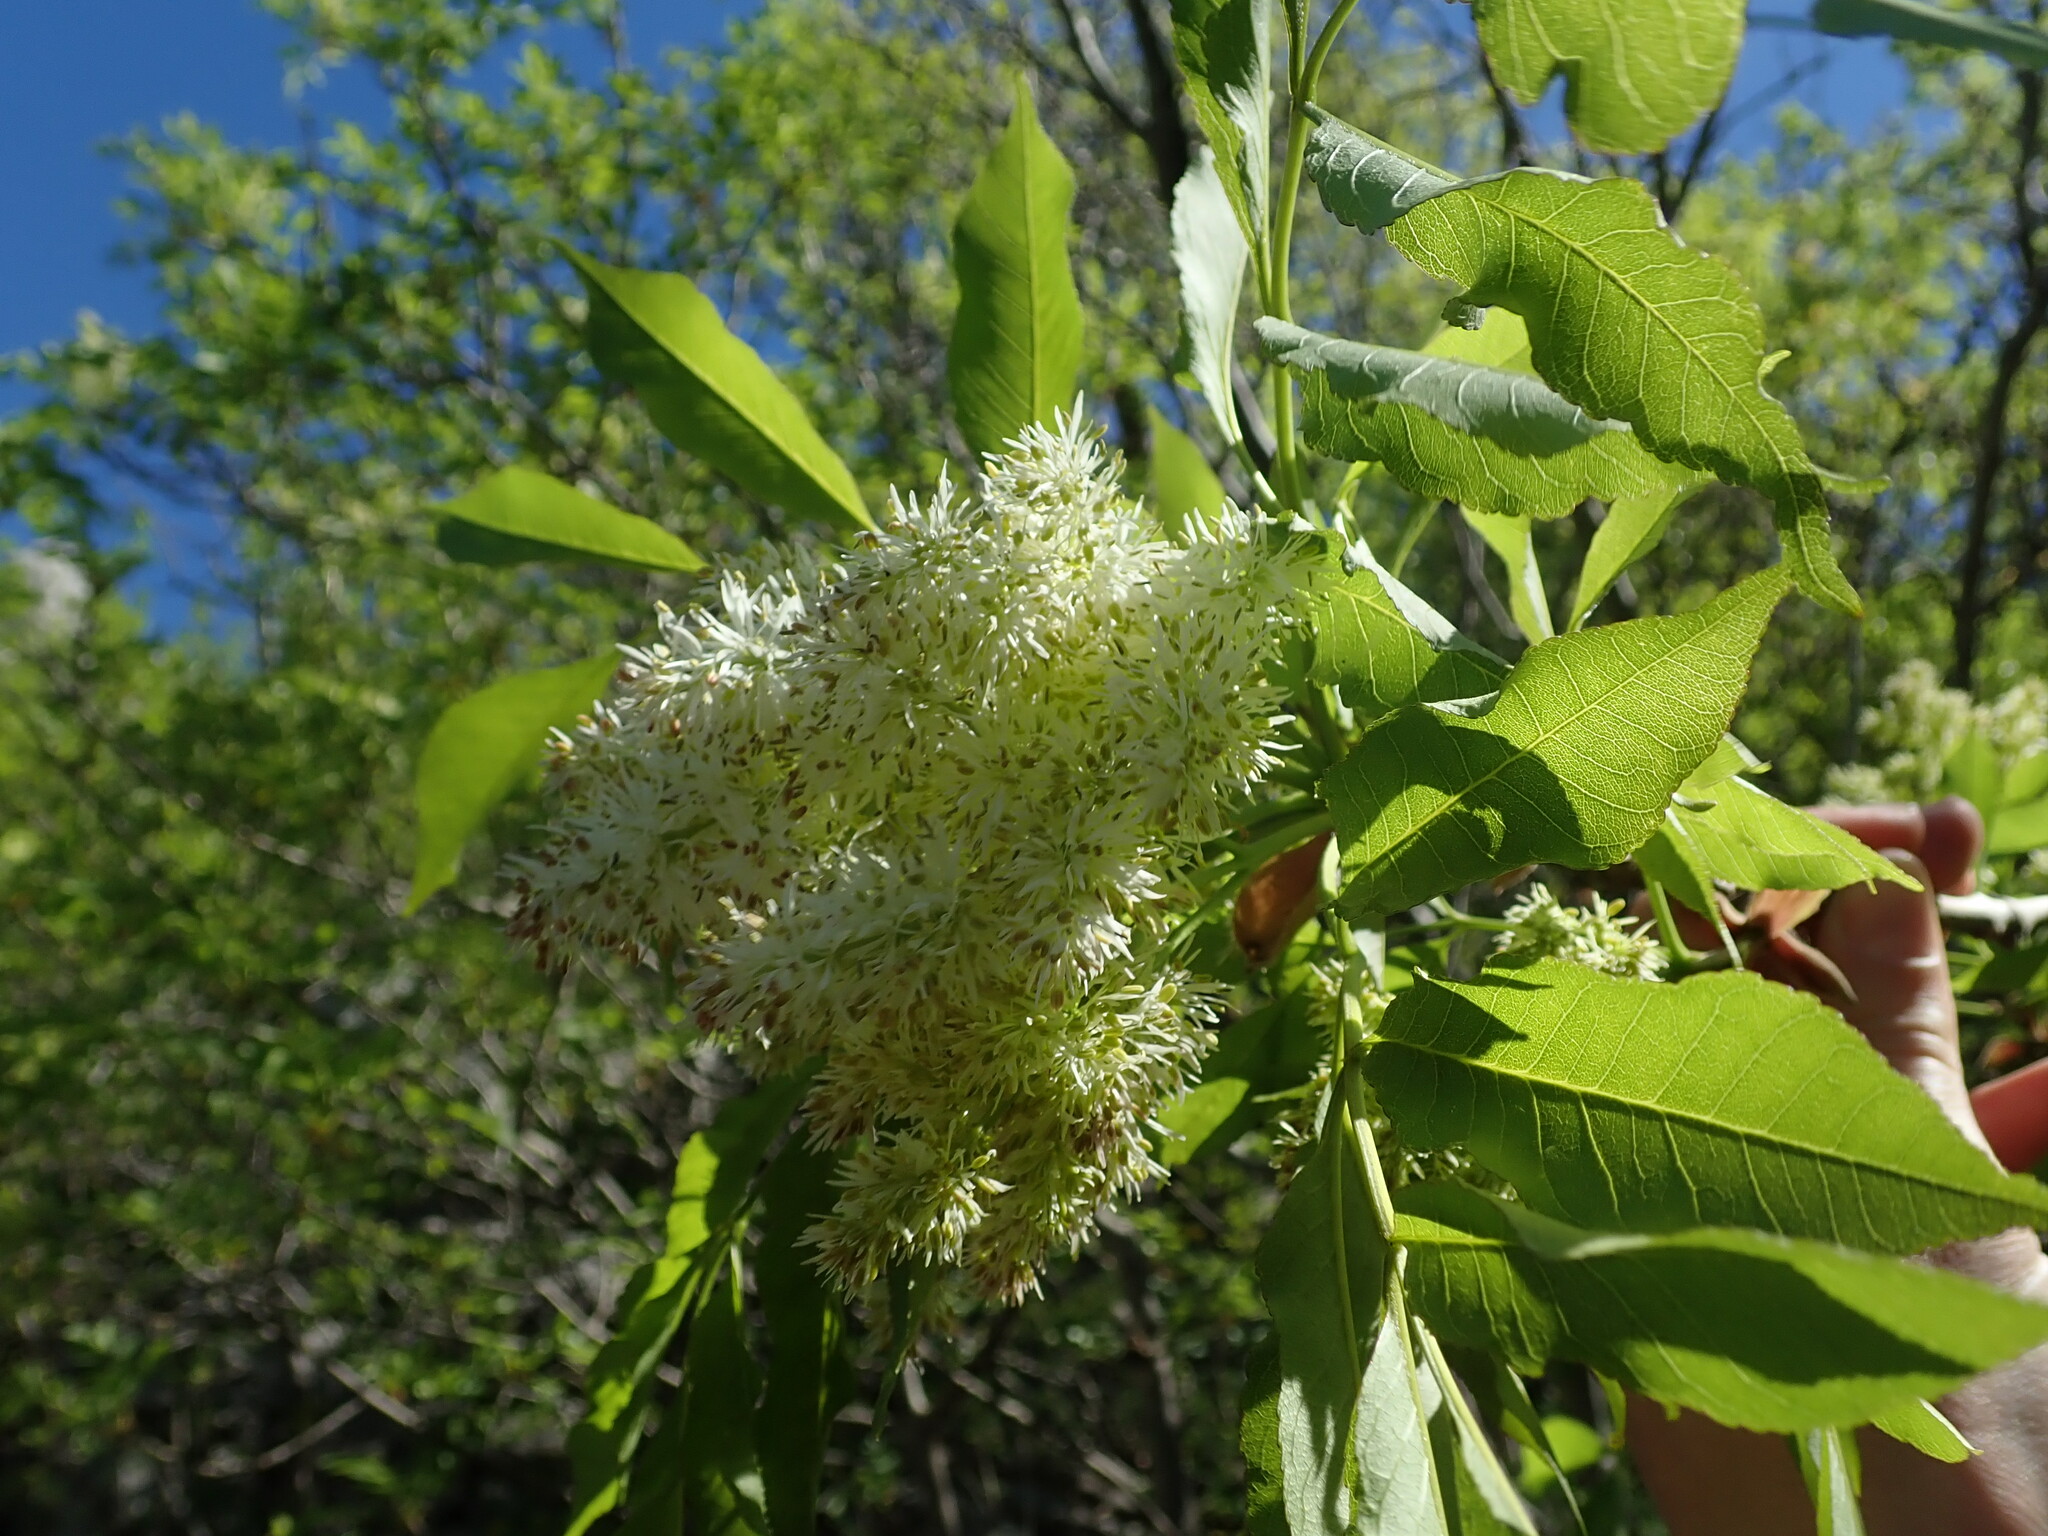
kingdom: Plantae
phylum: Tracheophyta
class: Magnoliopsida
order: Lamiales
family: Oleaceae
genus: Fraxinus
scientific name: Fraxinus ornus
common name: Manna ash
